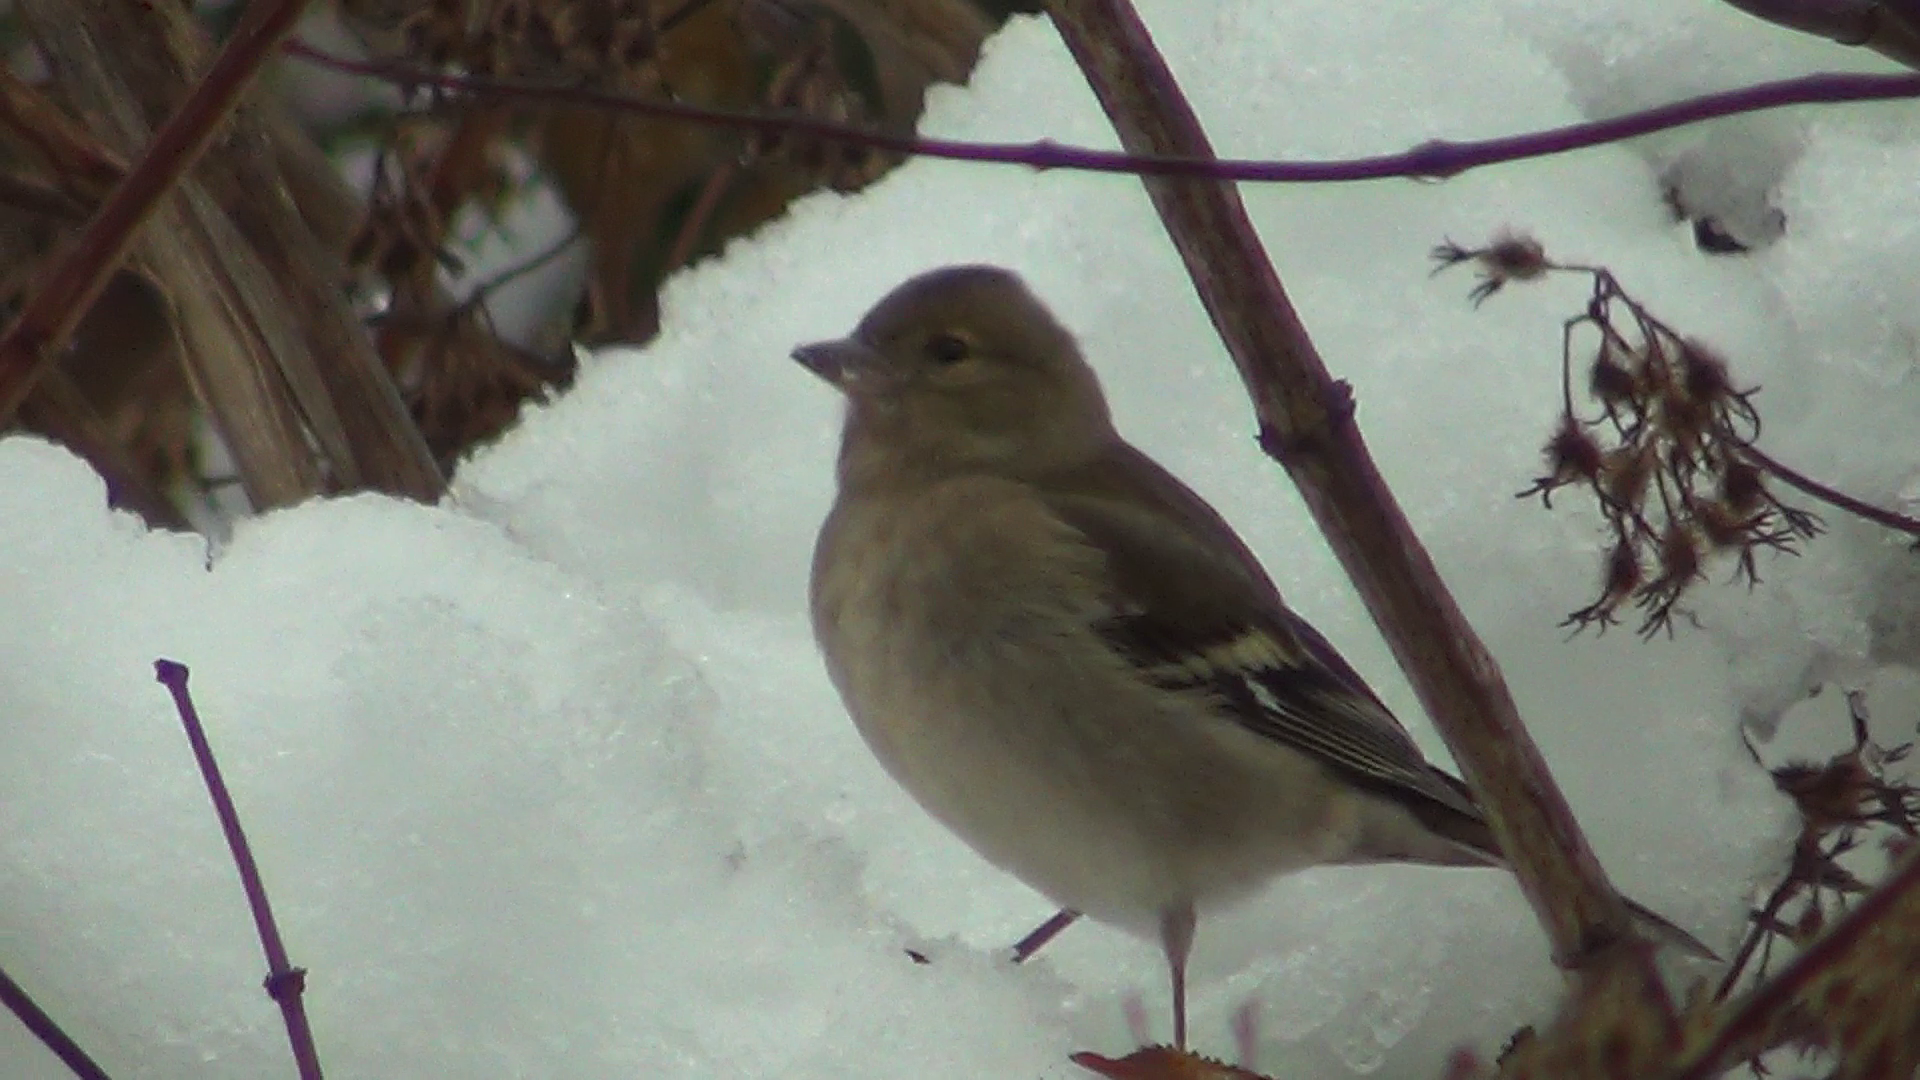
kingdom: Animalia
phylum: Chordata
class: Aves
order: Passeriformes
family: Fringillidae
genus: Fringilla
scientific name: Fringilla coelebs
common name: Common chaffinch
